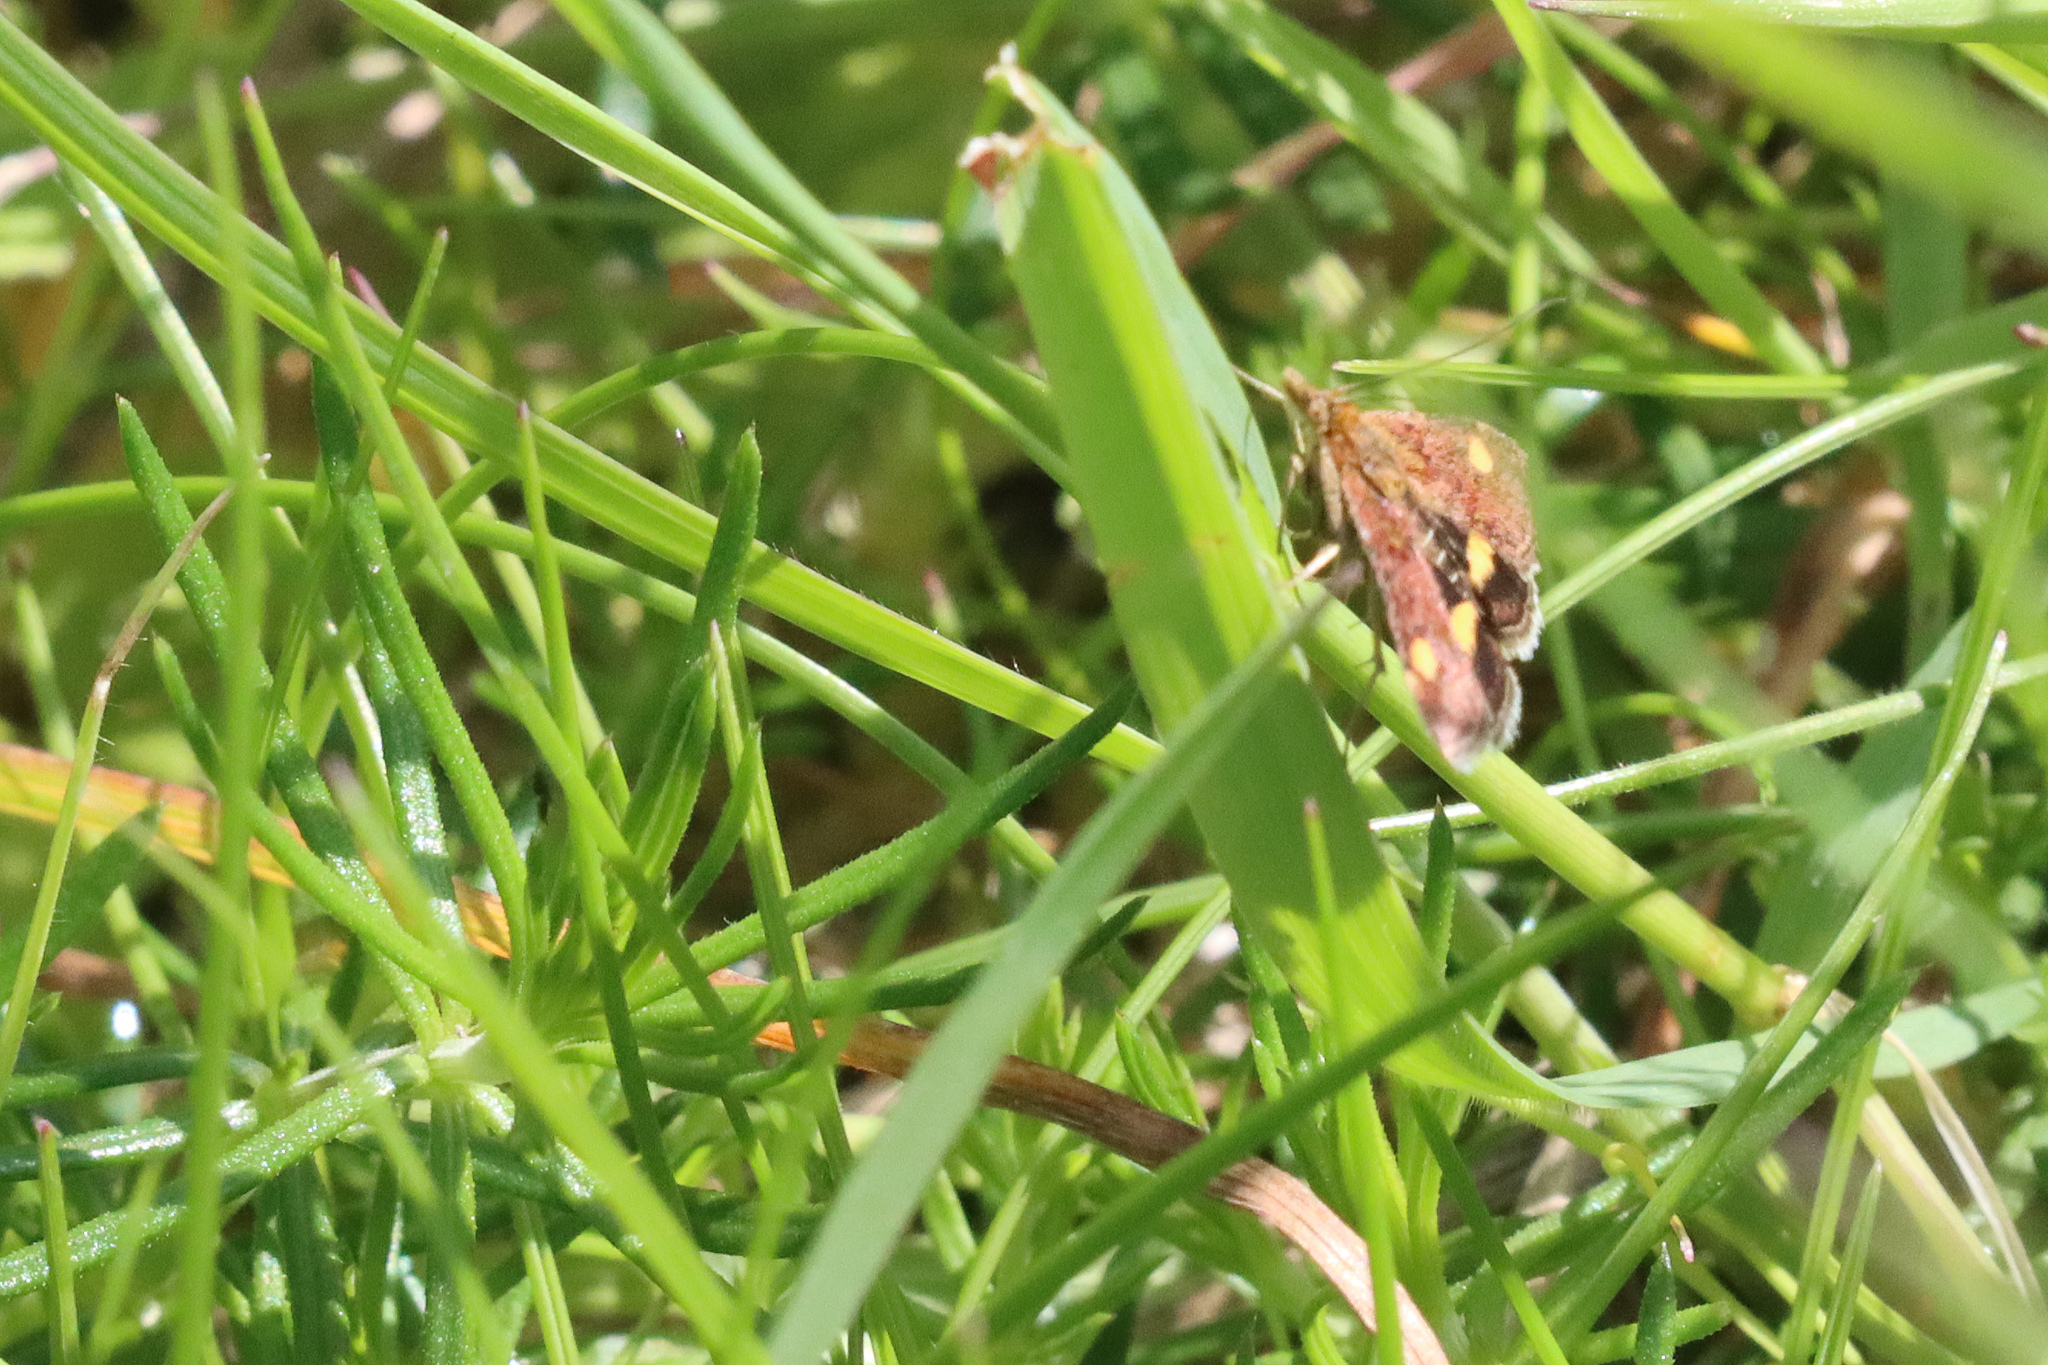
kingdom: Animalia
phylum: Arthropoda
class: Insecta
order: Lepidoptera
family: Crambidae
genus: Pyrausta
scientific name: Pyrausta aurata
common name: Small purple & gold
